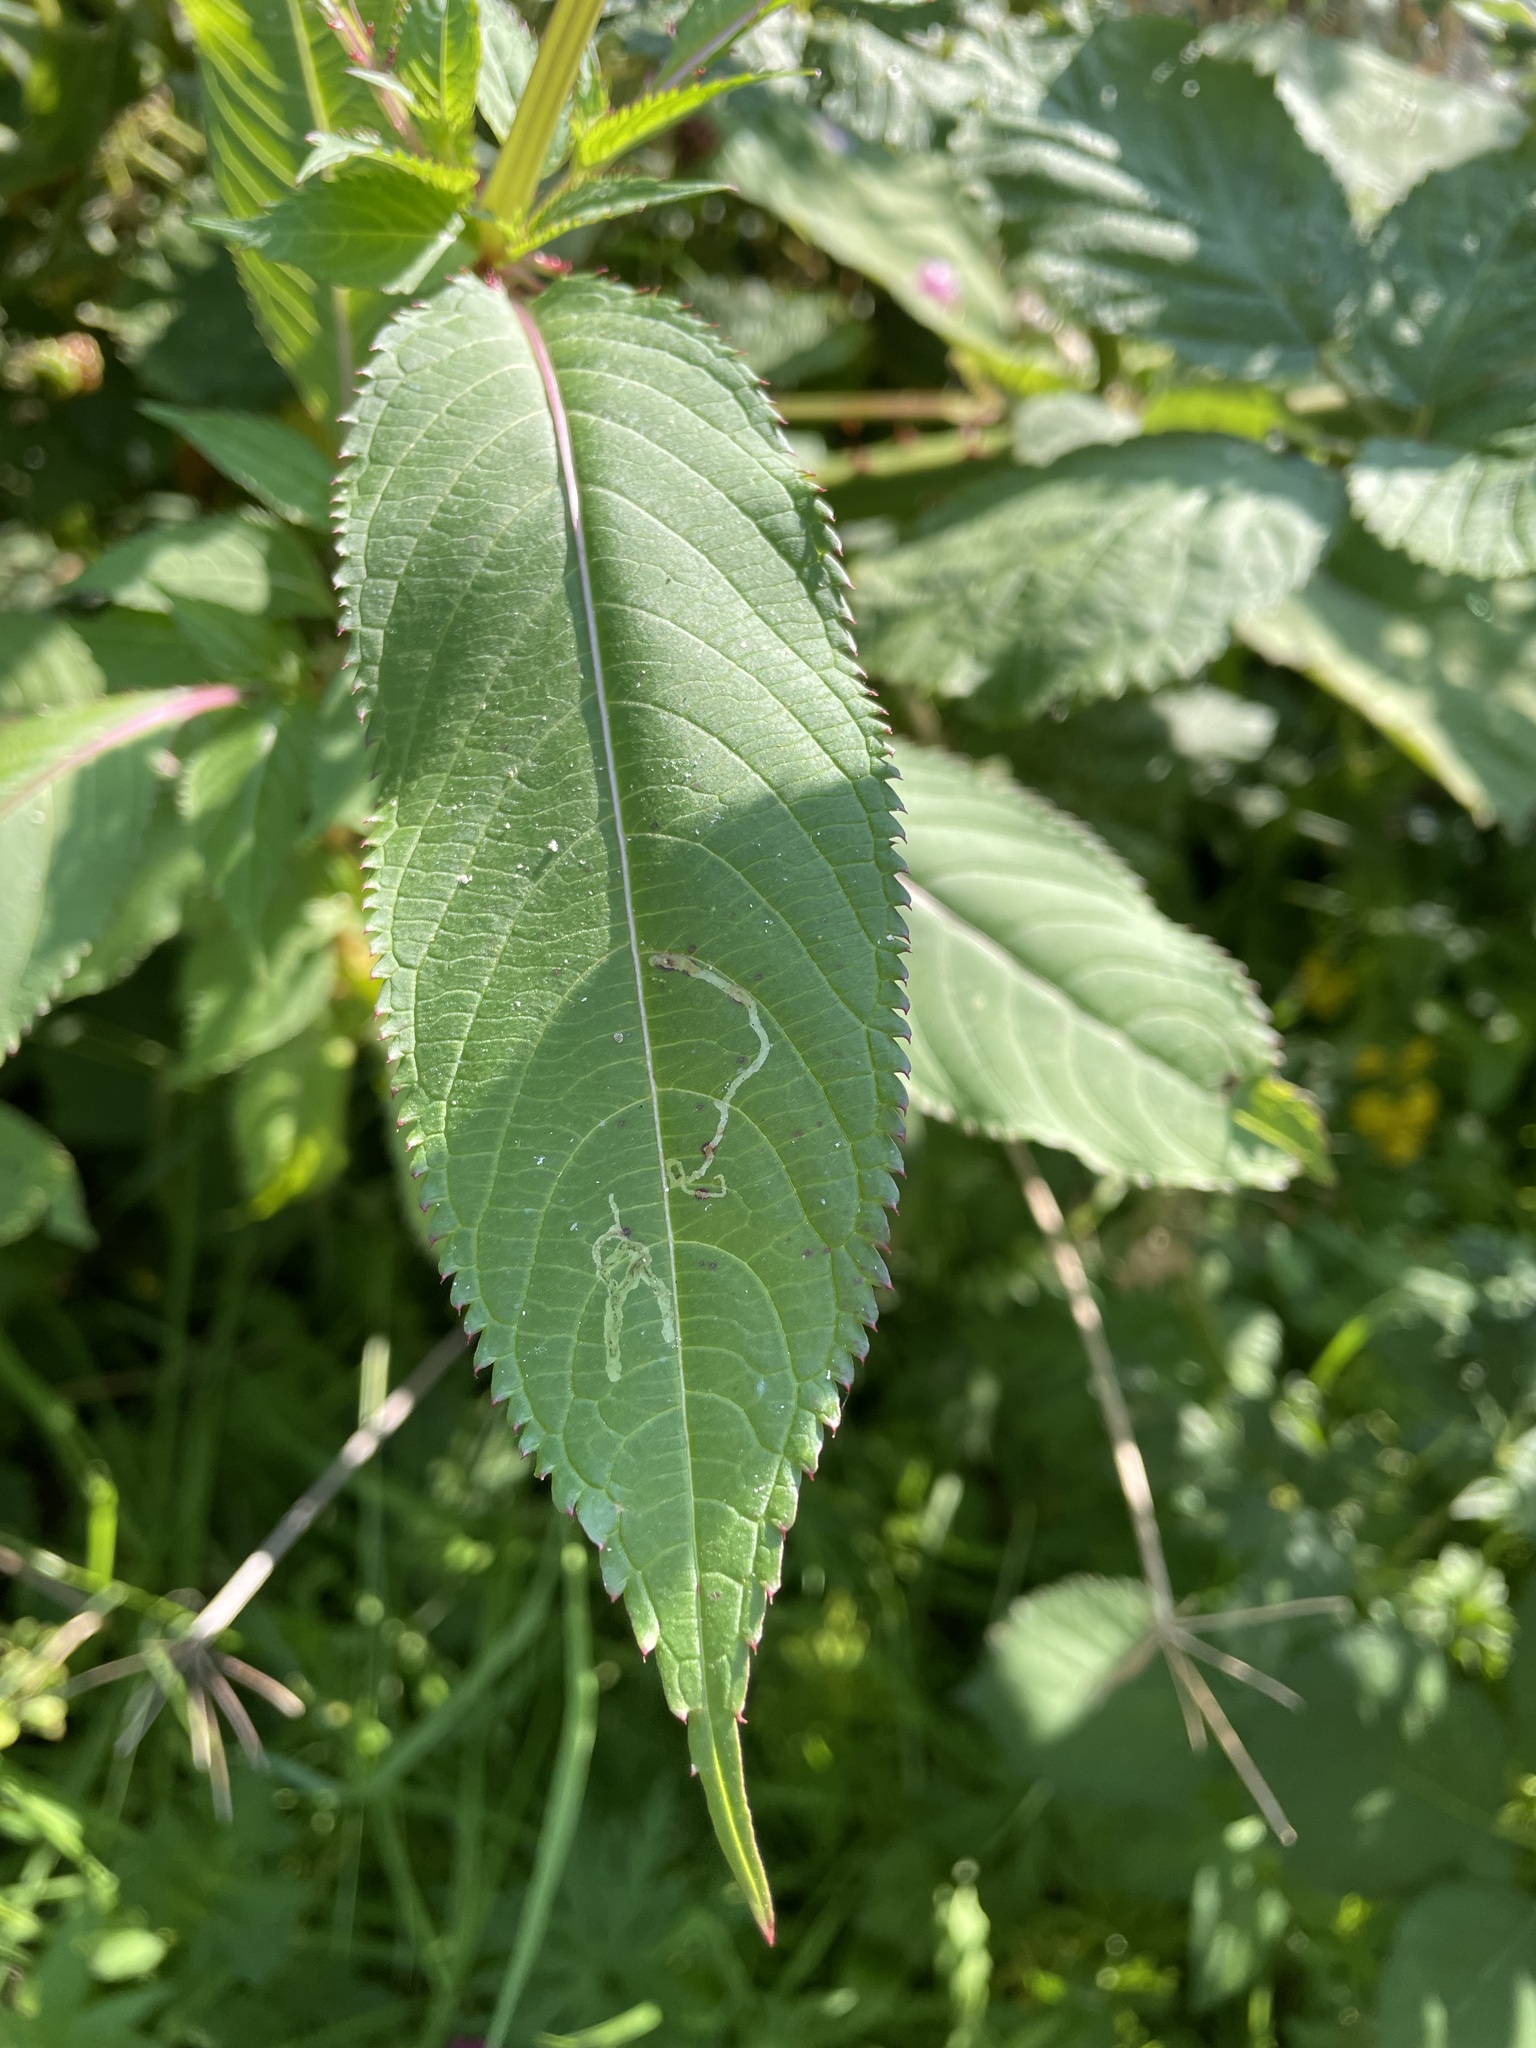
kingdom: Animalia
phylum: Arthropoda
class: Insecta
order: Diptera
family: Agromyzidae
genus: Phytoliriomyza
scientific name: Phytoliriomyza melampyga
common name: Jewelweed leaf-miner fly
